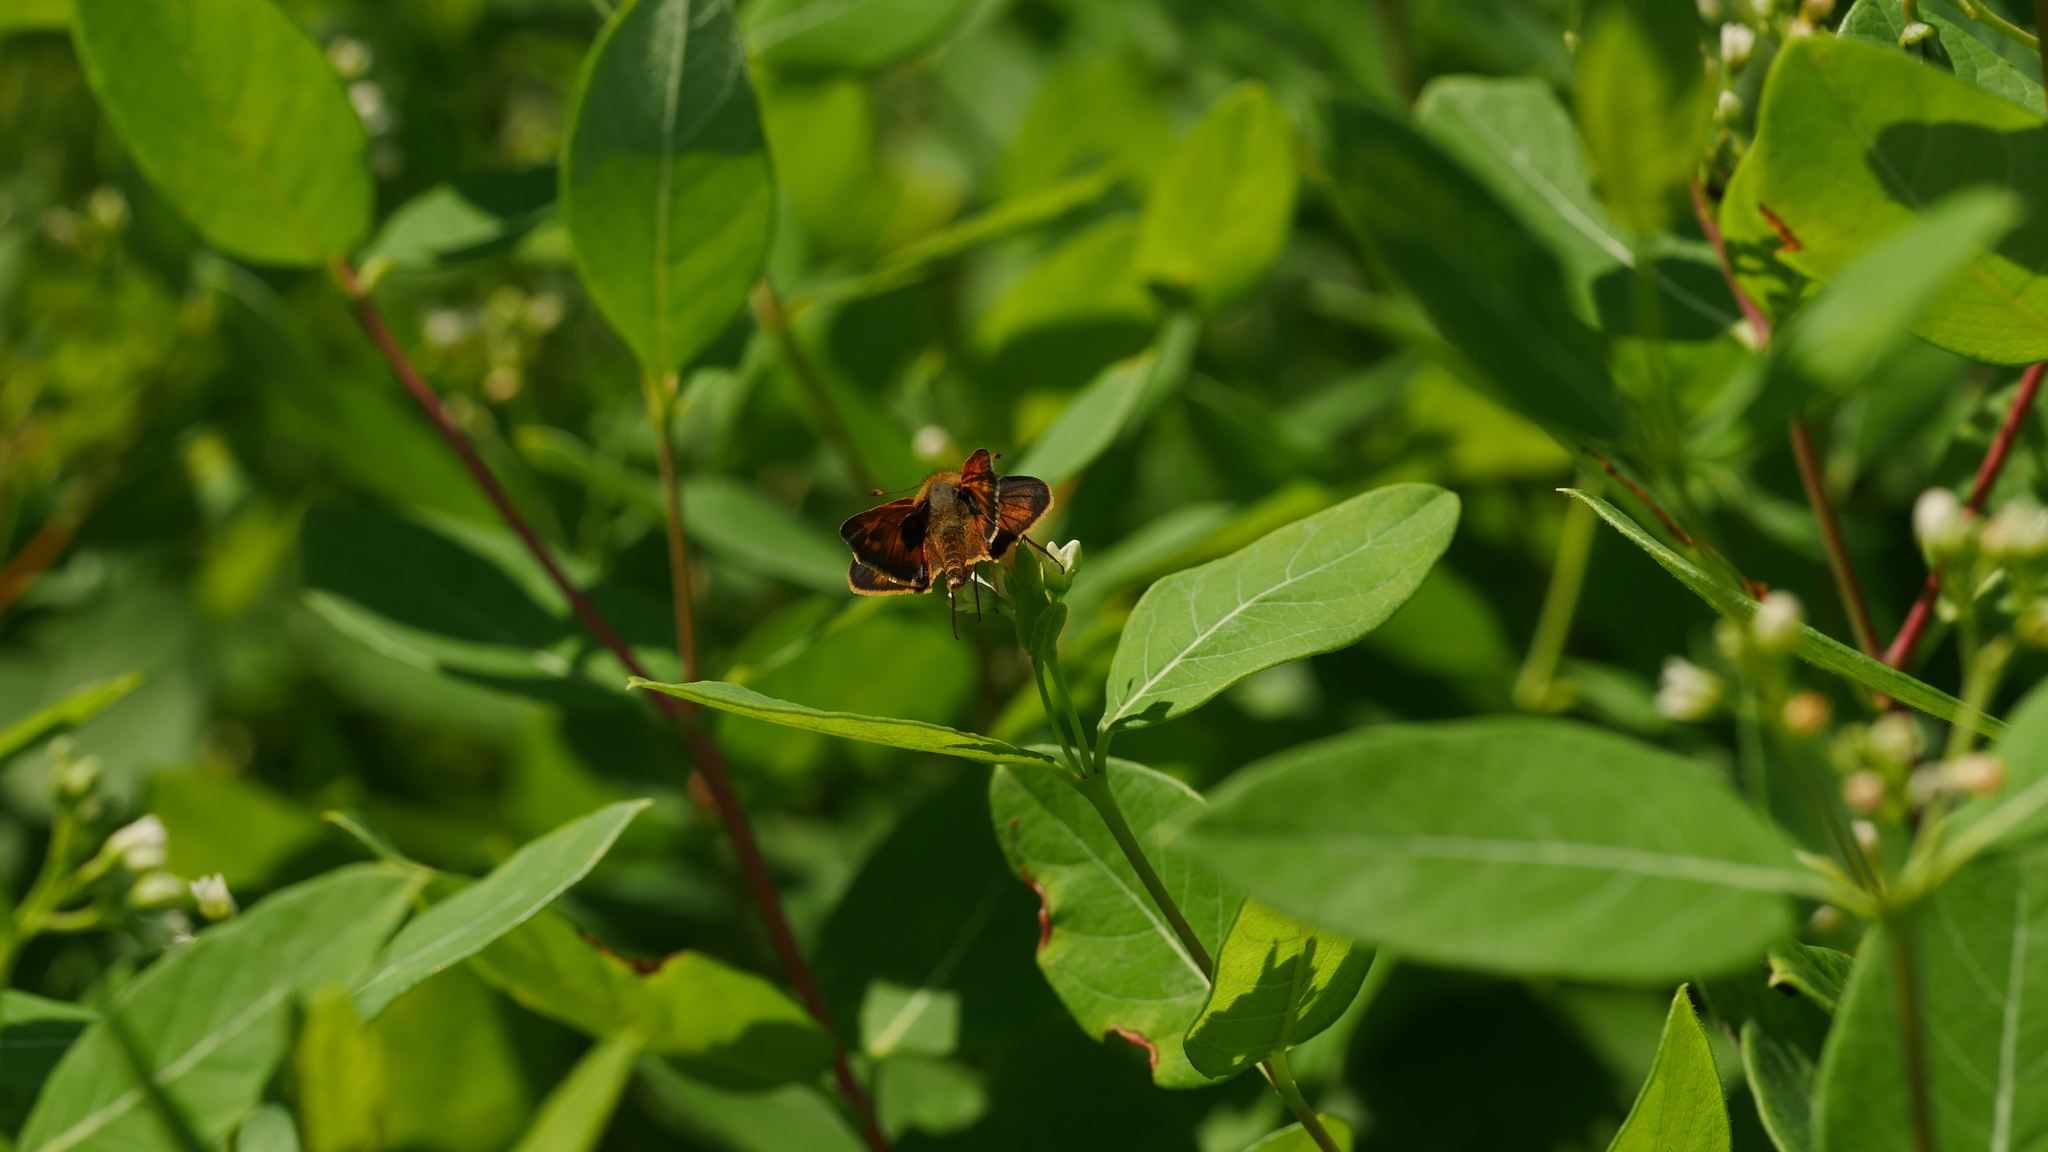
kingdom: Animalia
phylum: Arthropoda
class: Insecta
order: Lepidoptera
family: Hesperiidae
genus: Atalopedes
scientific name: Atalopedes
